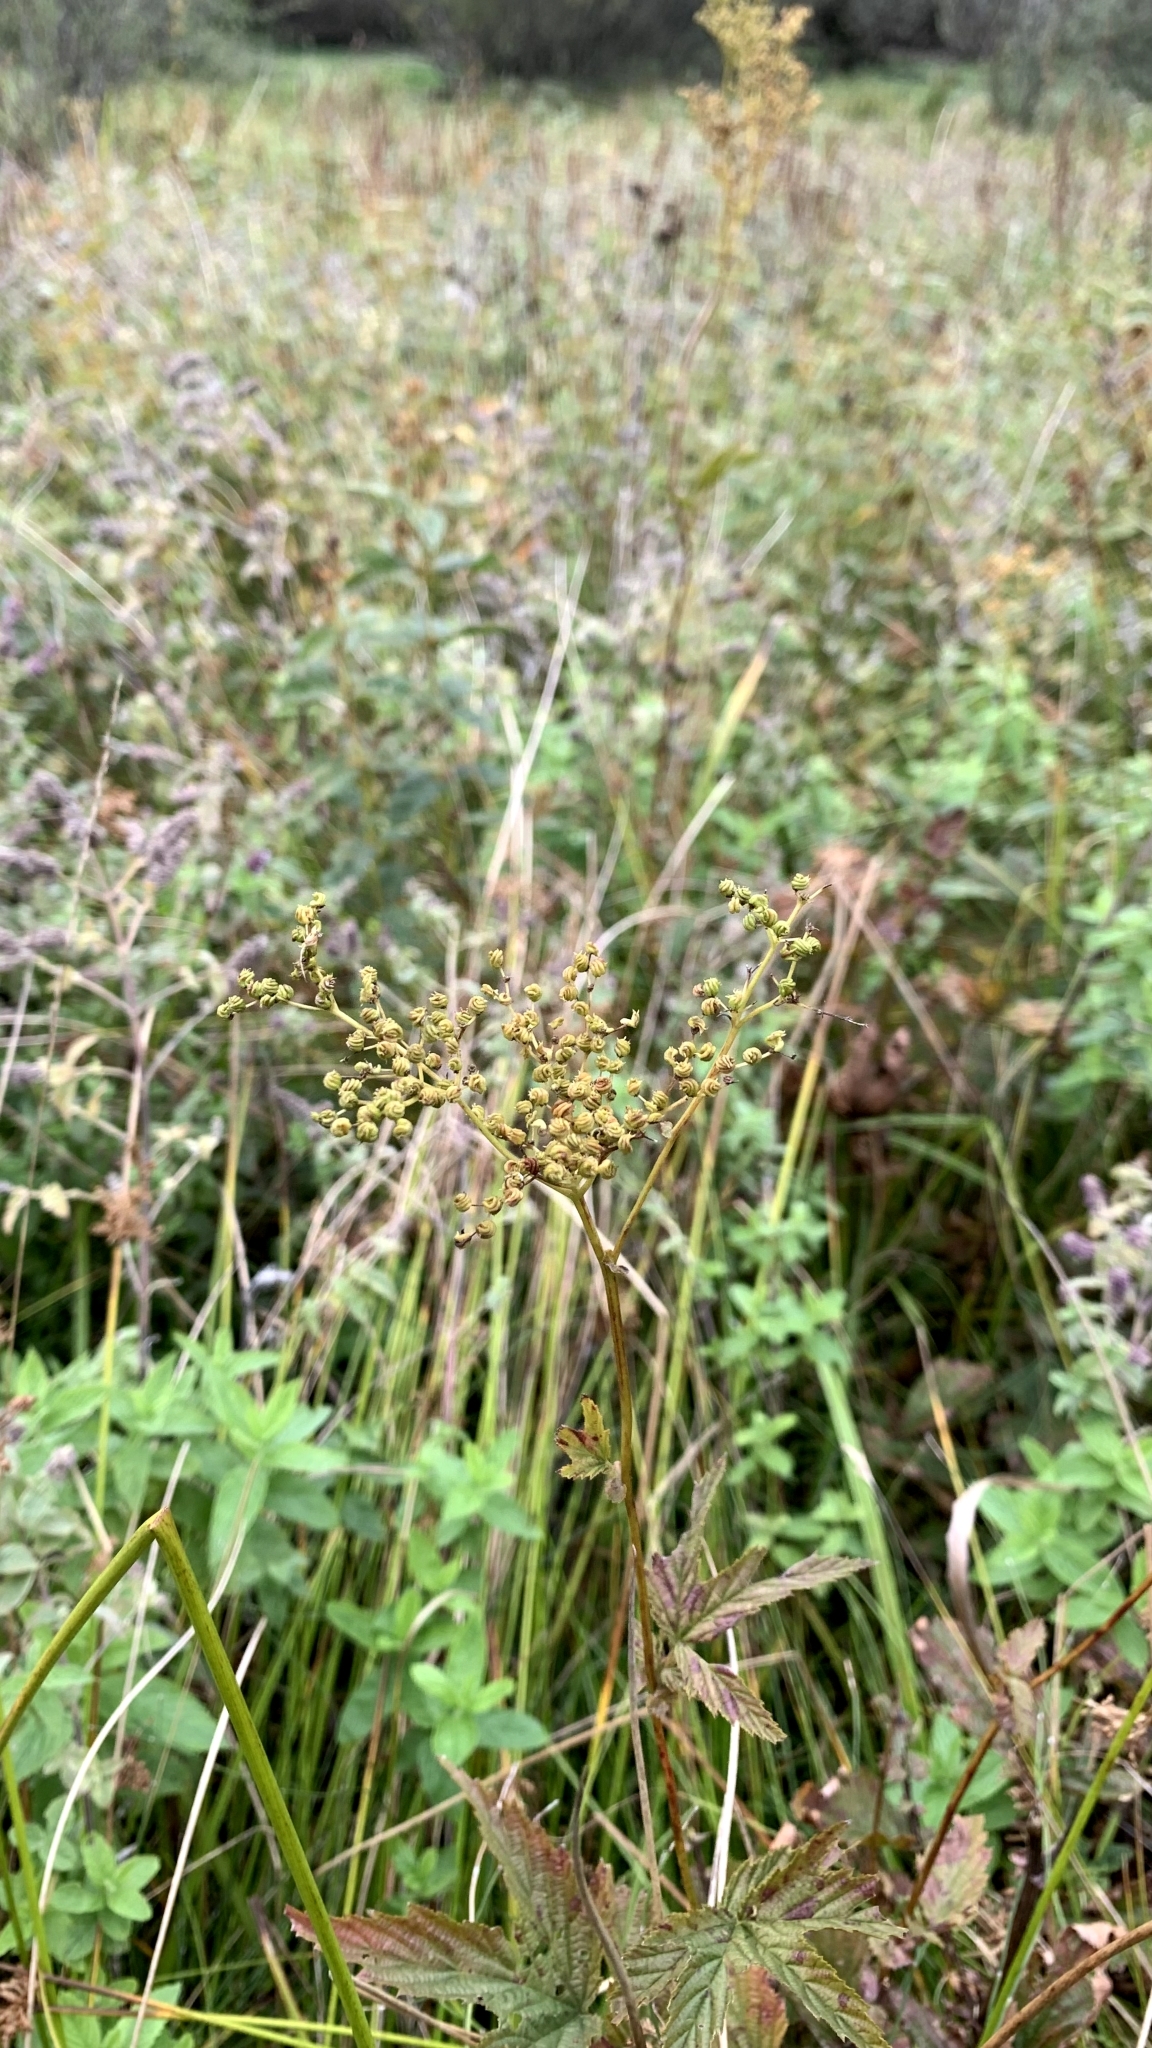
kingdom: Plantae
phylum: Tracheophyta
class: Magnoliopsida
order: Rosales
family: Rosaceae
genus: Filipendula
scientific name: Filipendula ulmaria
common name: Meadowsweet
